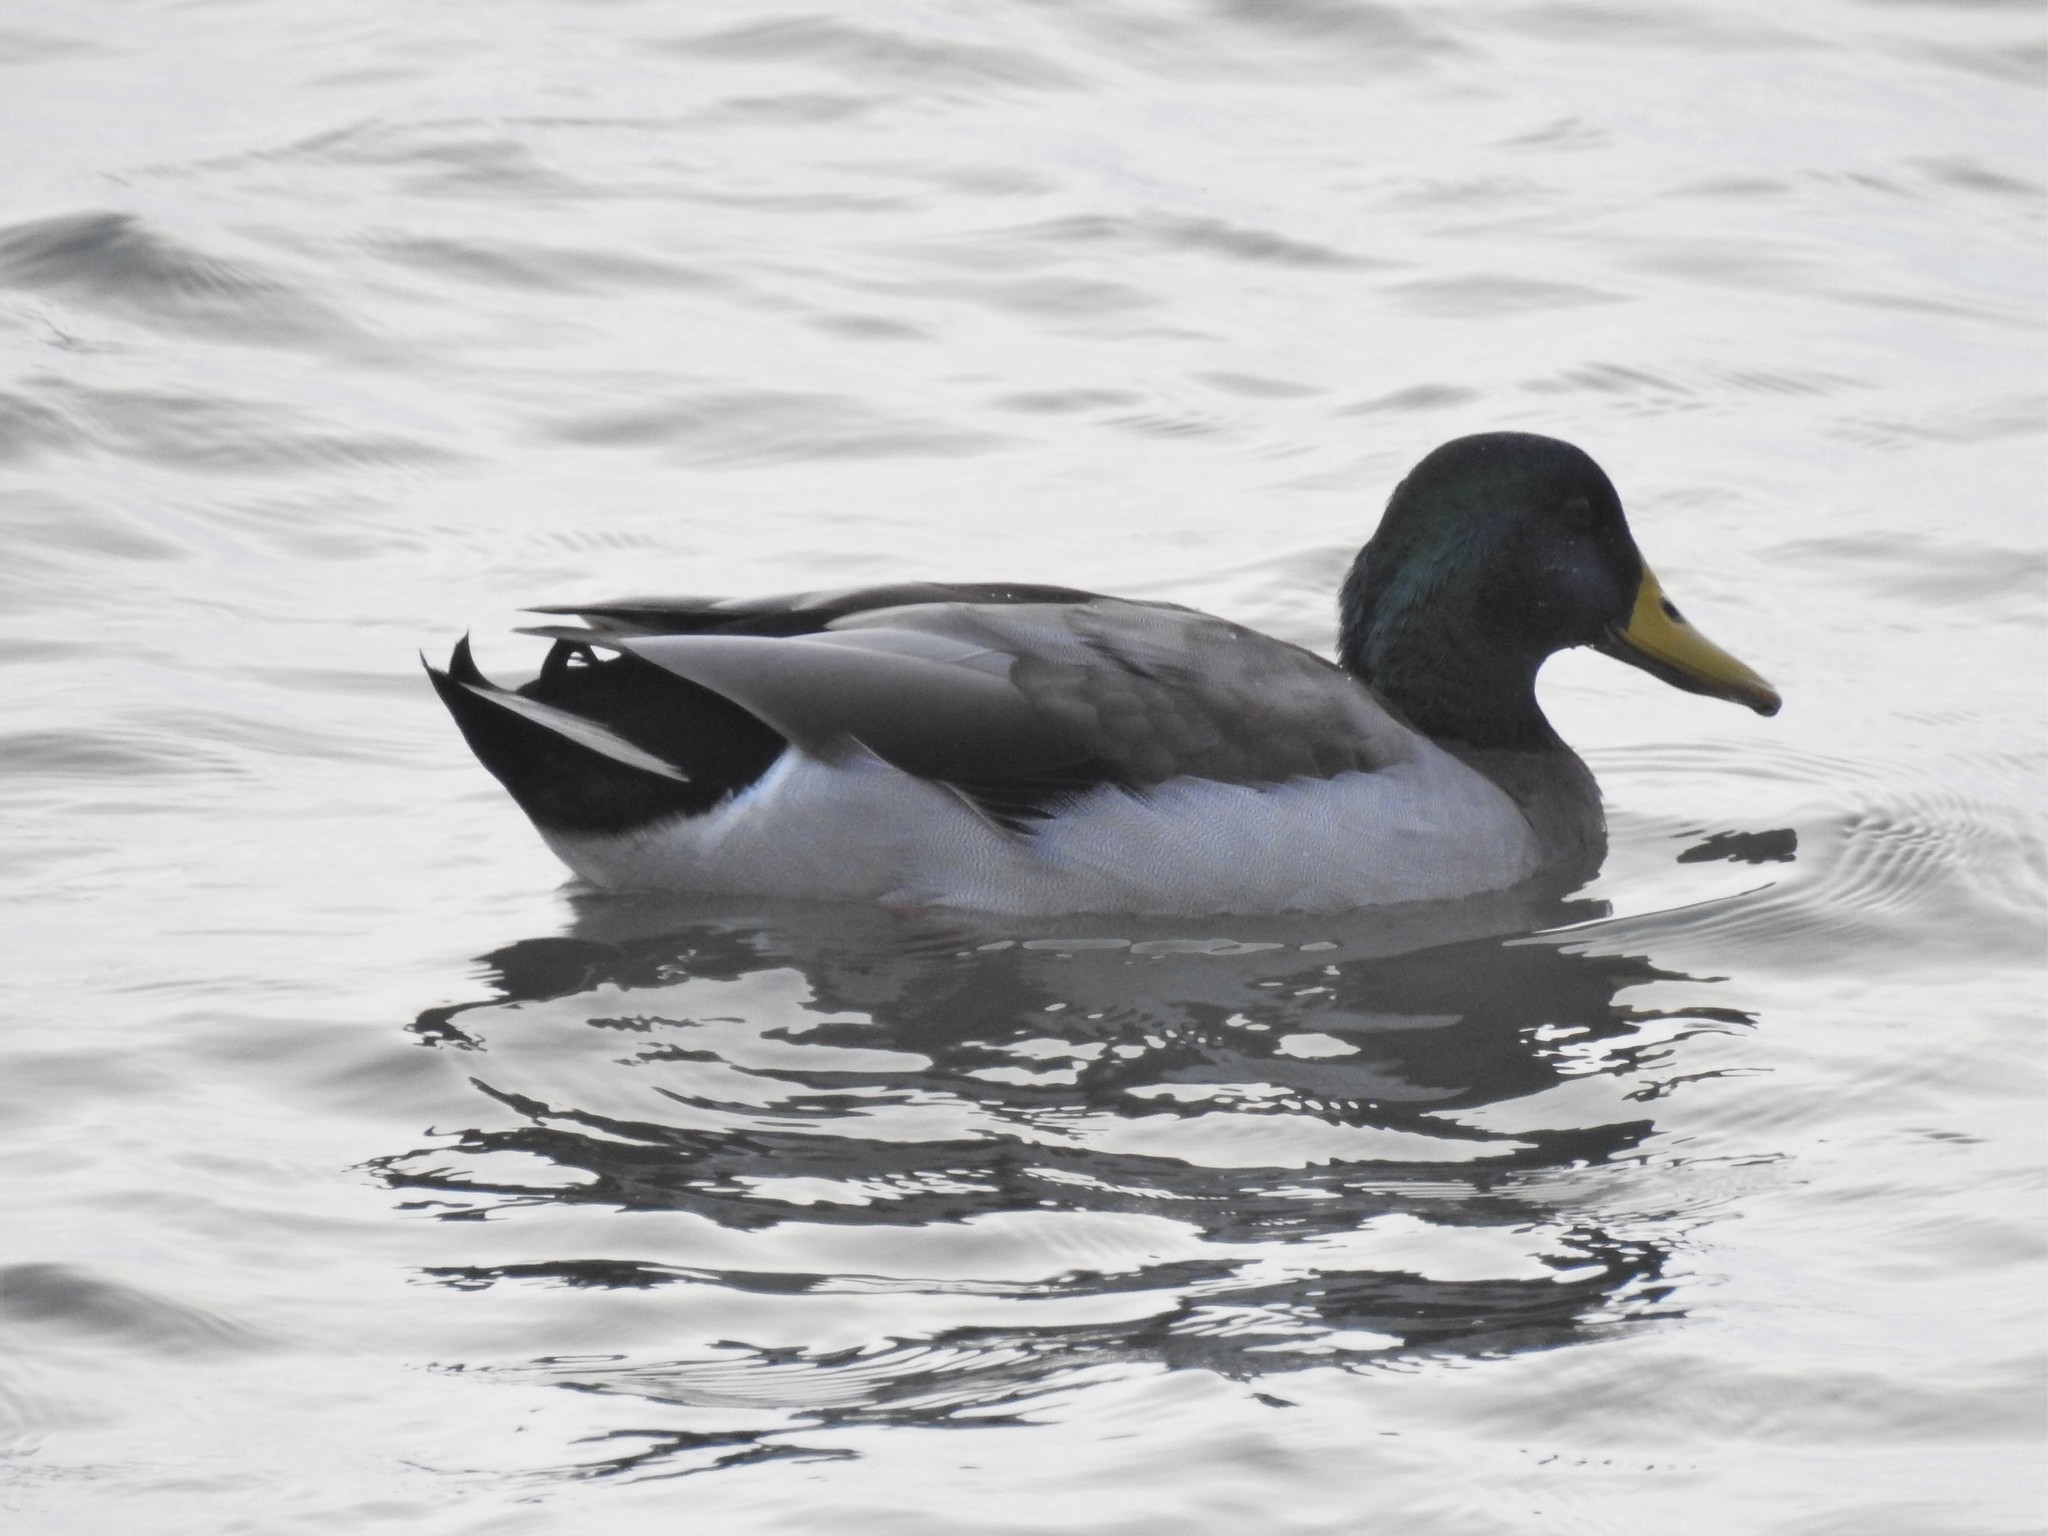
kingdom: Animalia
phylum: Chordata
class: Aves
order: Anseriformes
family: Anatidae
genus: Anas
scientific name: Anas platyrhynchos
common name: Mallard
